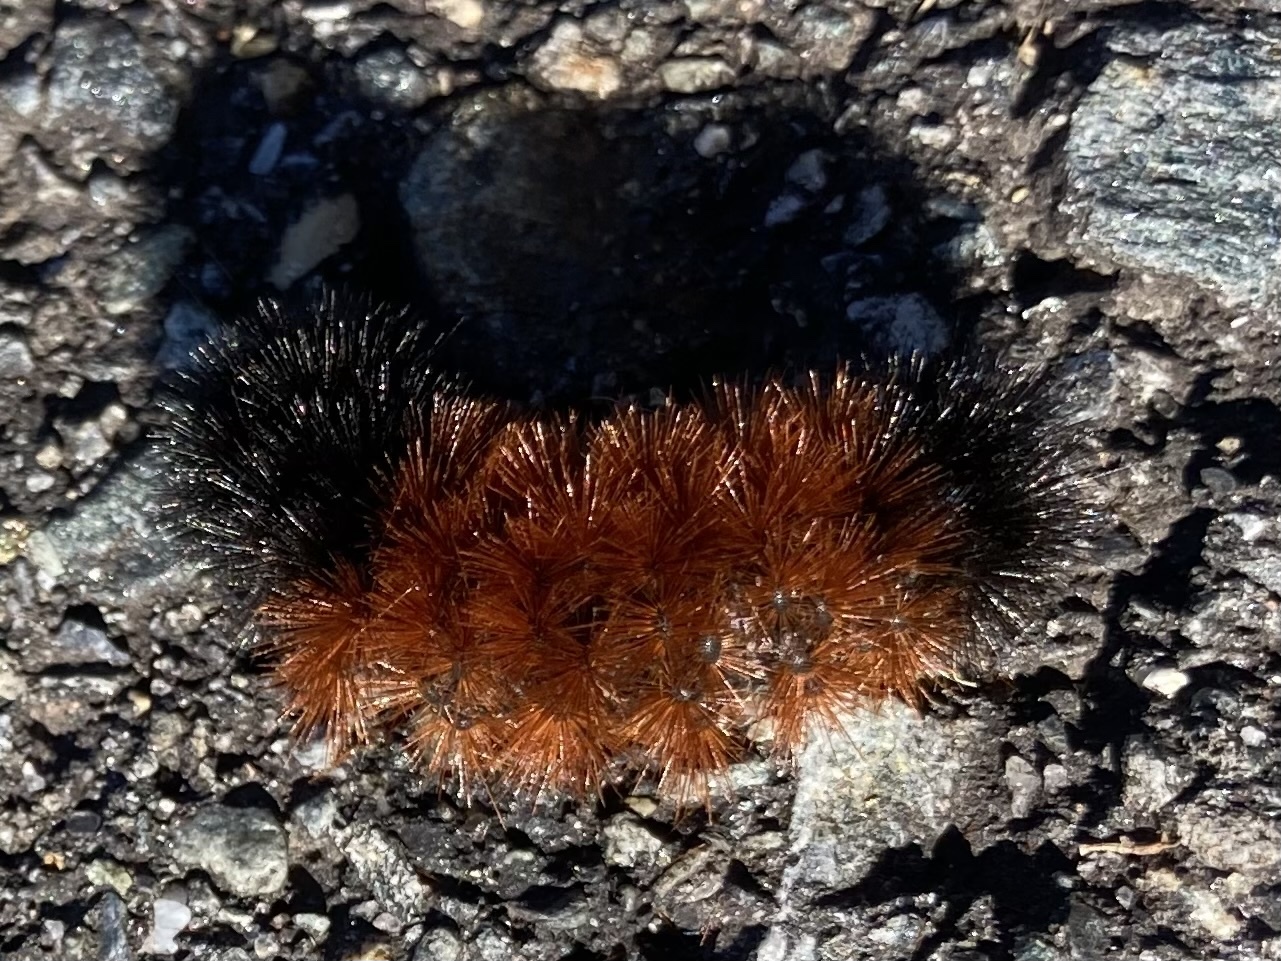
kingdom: Animalia
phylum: Arthropoda
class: Insecta
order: Lepidoptera
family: Erebidae
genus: Pyrrharctia
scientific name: Pyrrharctia isabella
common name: Isabella tiger moth
